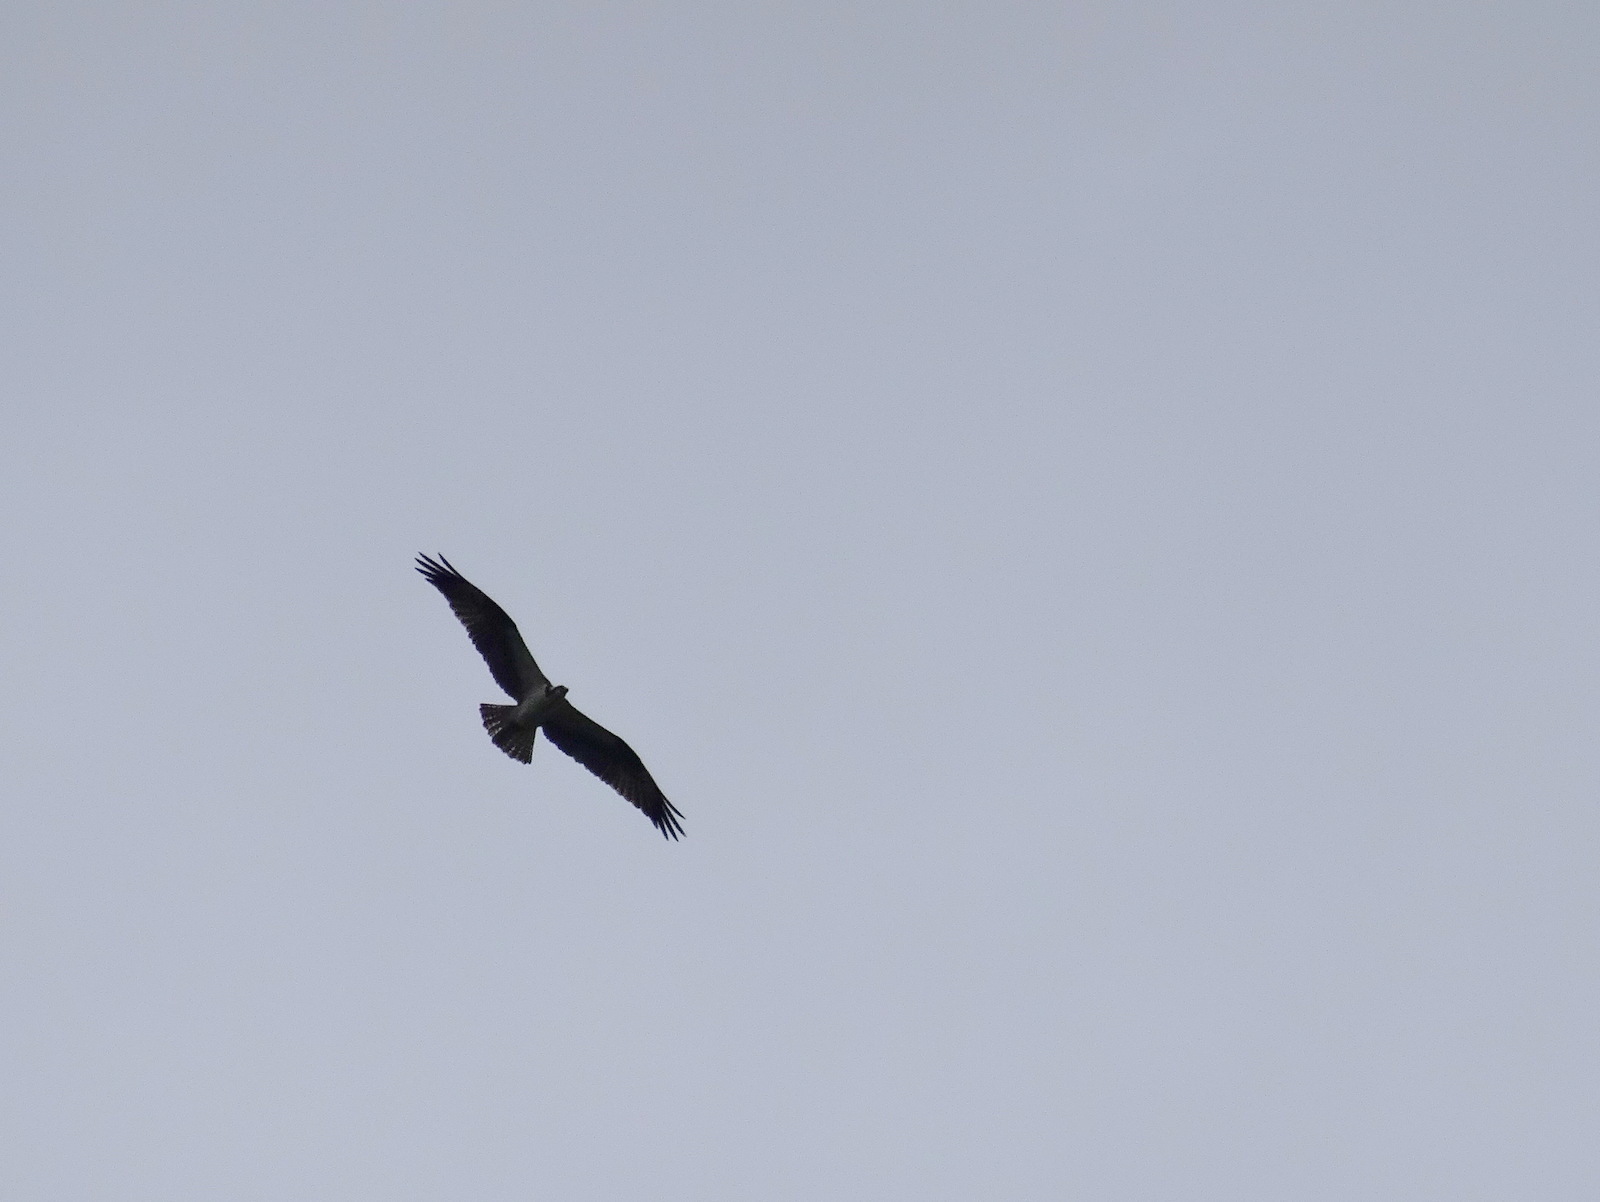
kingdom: Animalia
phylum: Chordata
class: Aves
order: Accipitriformes
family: Pandionidae
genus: Pandion
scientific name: Pandion haliaetus
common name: Osprey
